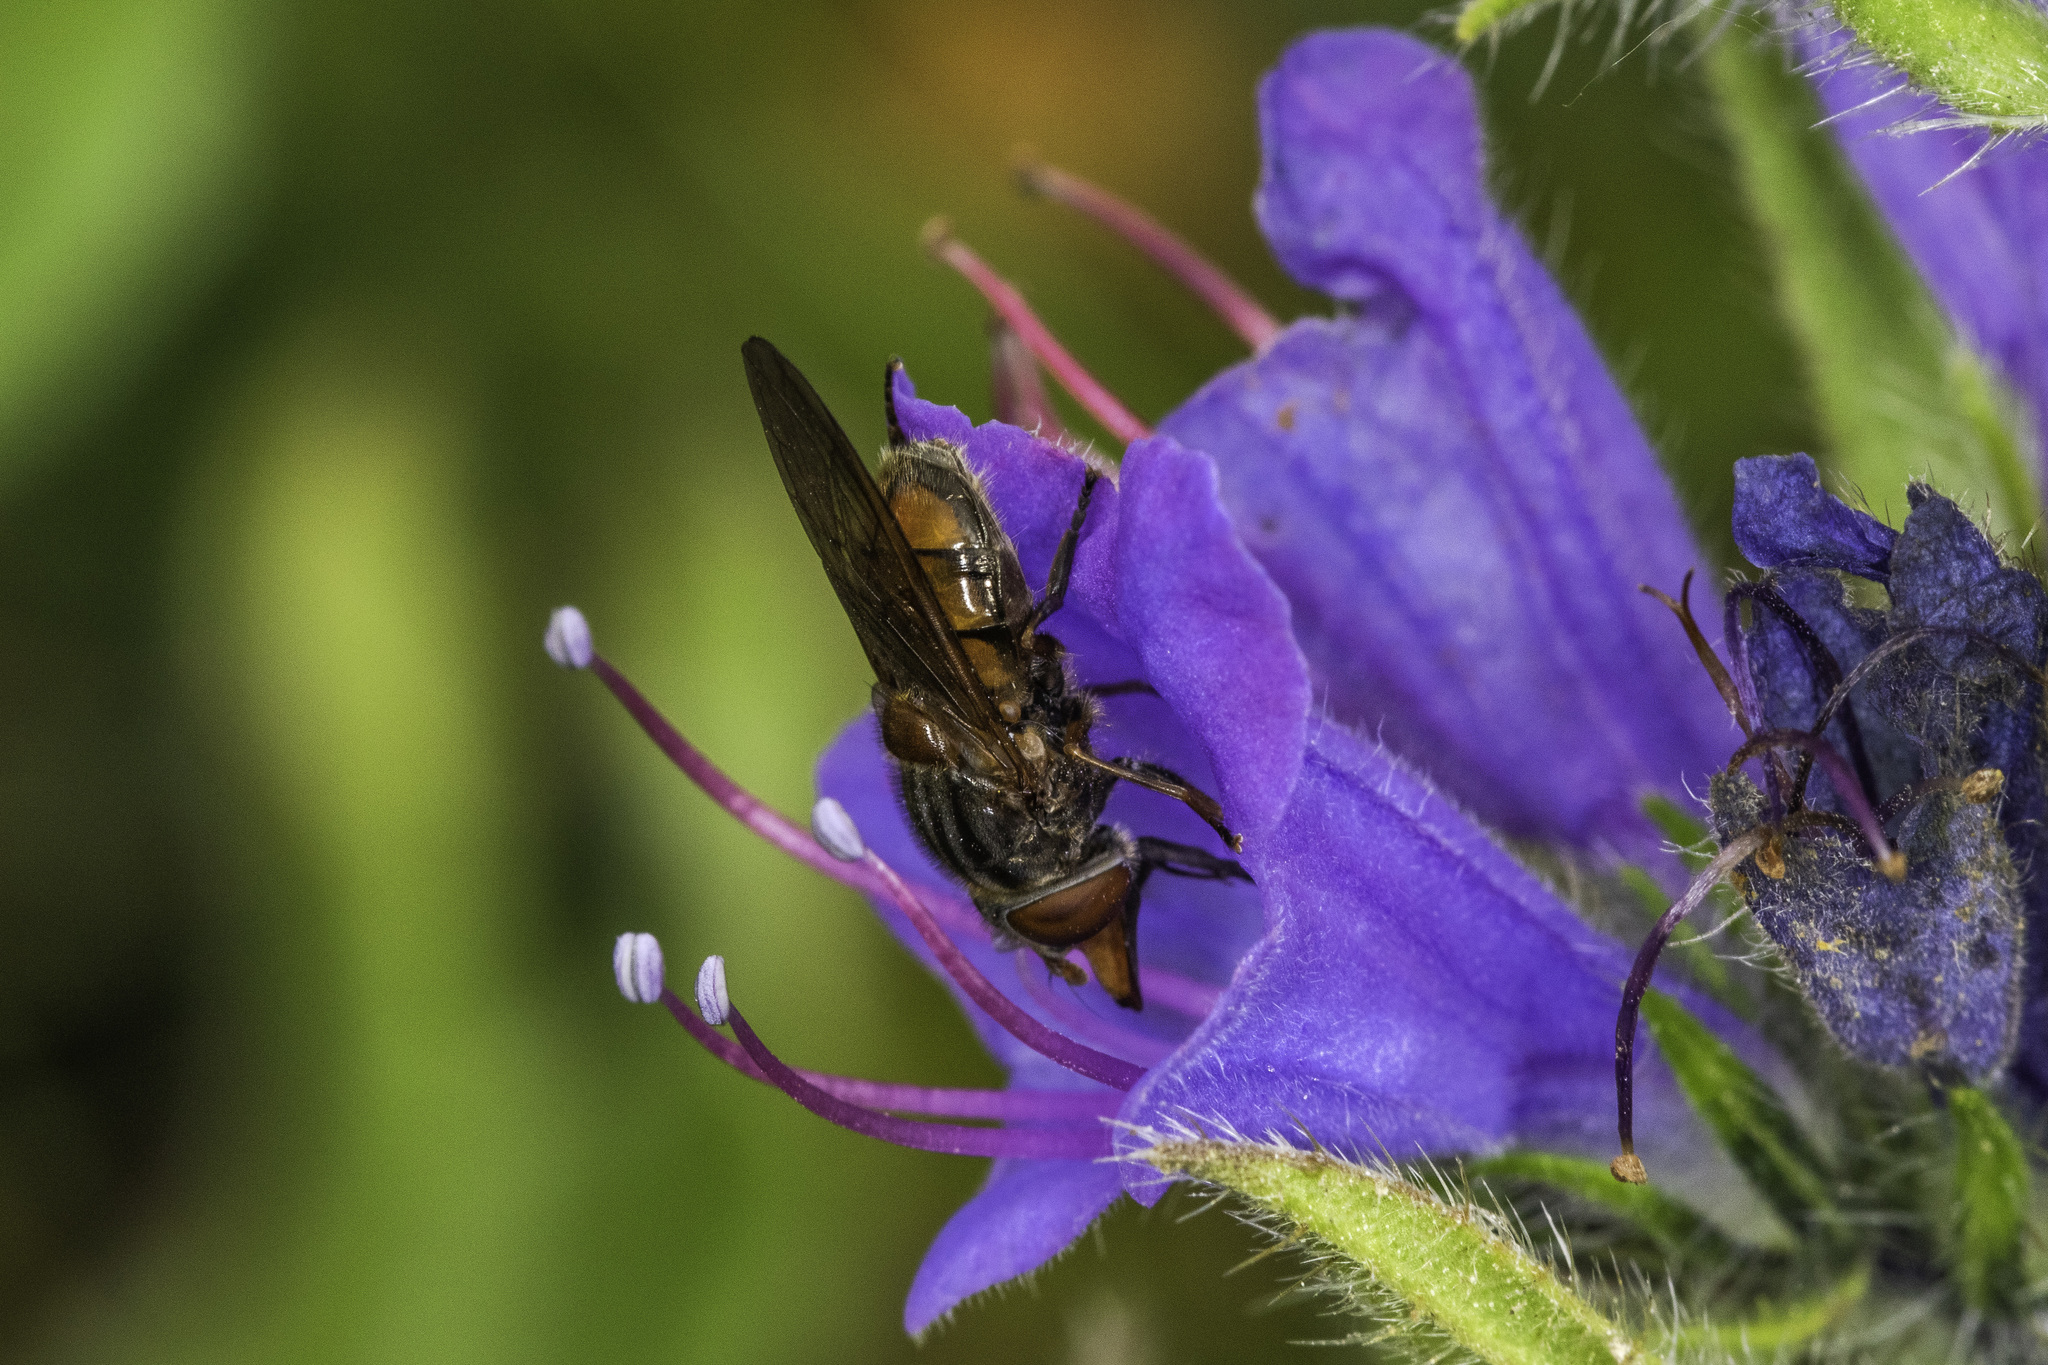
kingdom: Animalia
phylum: Arthropoda
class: Insecta
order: Diptera
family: Syrphidae
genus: Rhingia
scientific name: Rhingia campestris
